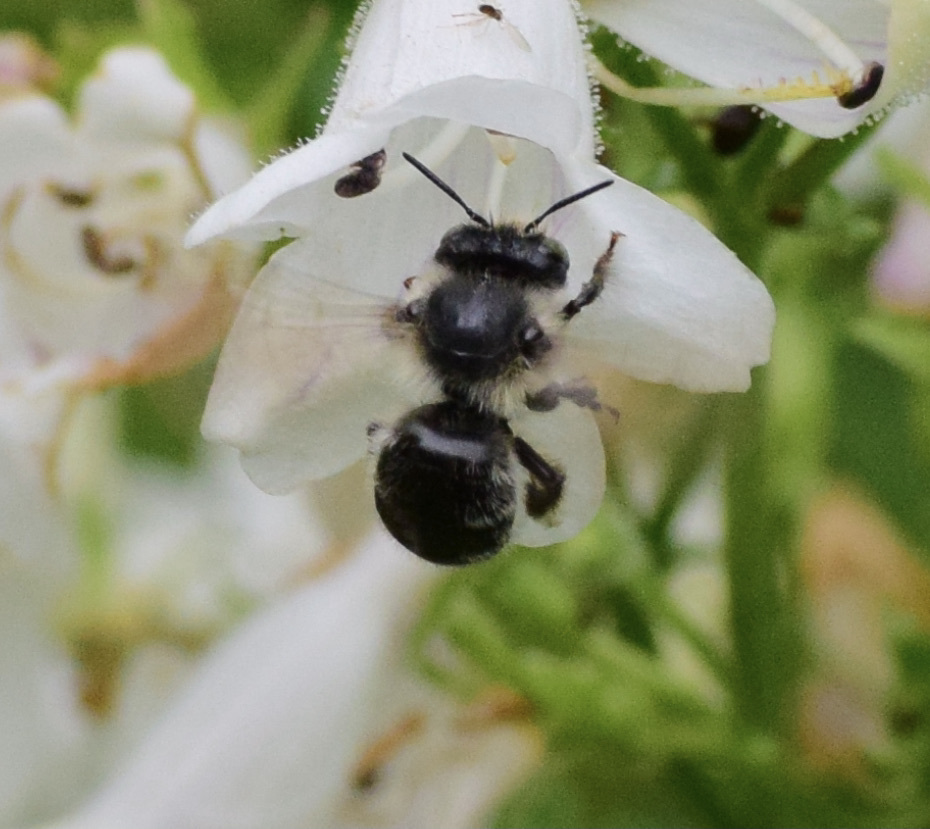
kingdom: Animalia
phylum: Arthropoda
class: Insecta
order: Hymenoptera
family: Apidae
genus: Anthophora
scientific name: Anthophora terminalis
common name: Orange-tipped wood-digger bee
